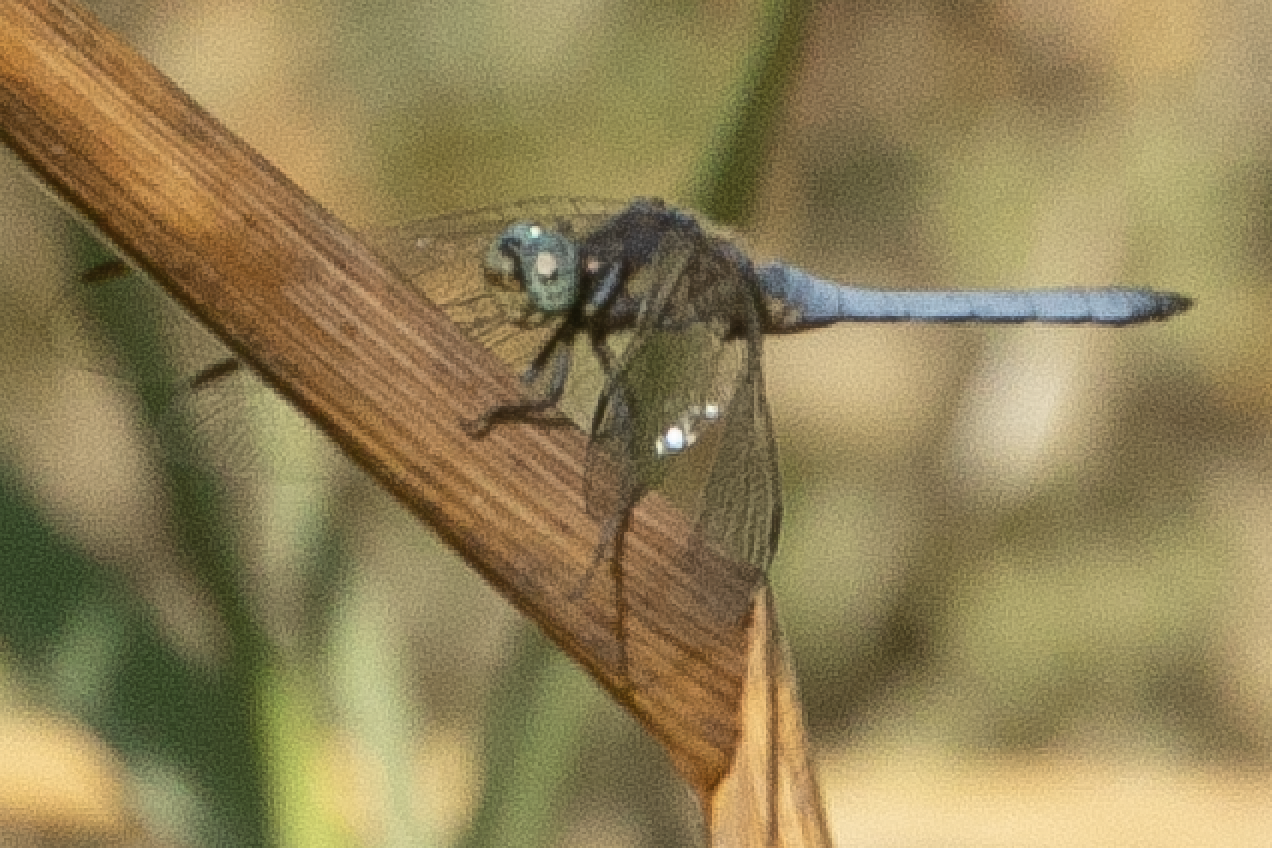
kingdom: Animalia
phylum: Arthropoda
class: Insecta
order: Odonata
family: Libellulidae
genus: Orthetrum
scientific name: Orthetrum coerulescens
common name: Keeled skimmer
